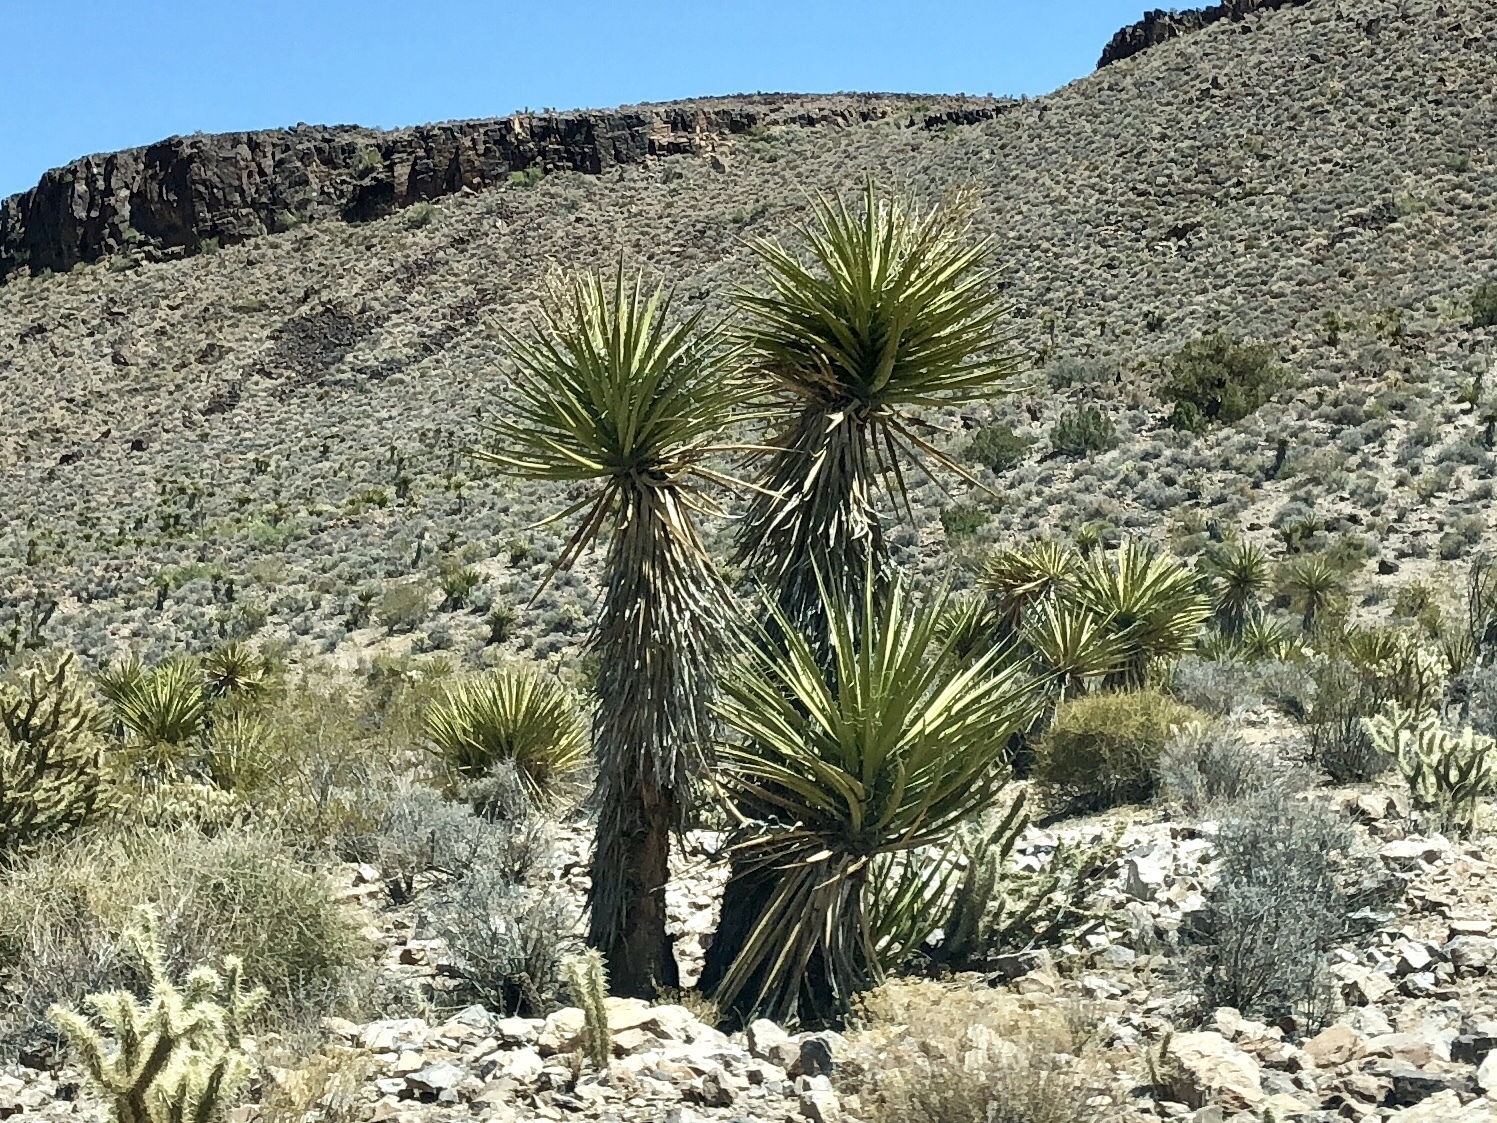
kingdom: Plantae
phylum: Tracheophyta
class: Liliopsida
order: Asparagales
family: Asparagaceae
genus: Yucca
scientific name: Yucca schidigera
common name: Mojave yucca
